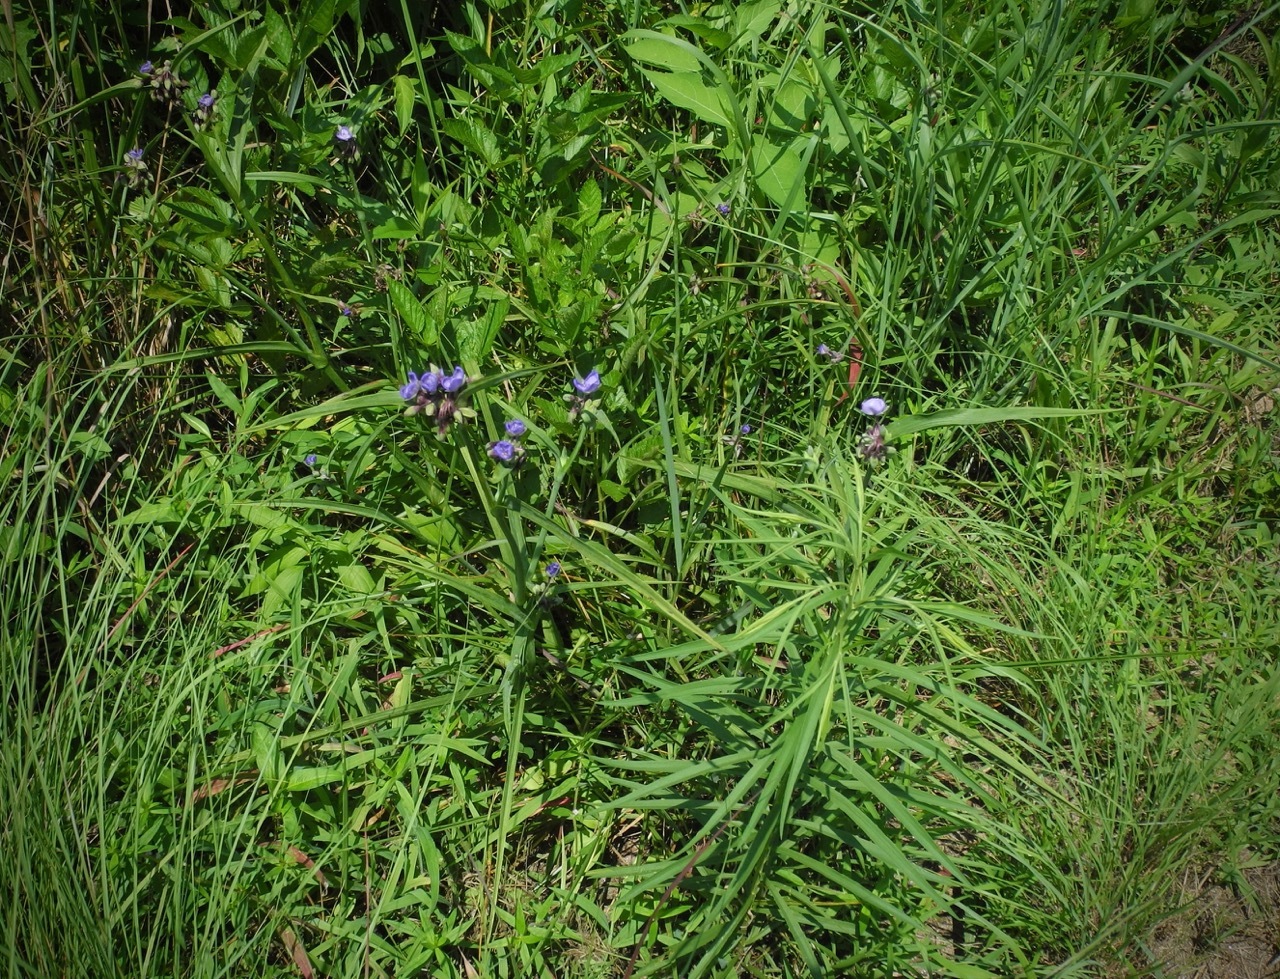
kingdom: Plantae
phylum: Tracheophyta
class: Liliopsida
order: Commelinales
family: Commelinaceae
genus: Tradescantia
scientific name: Tradescantia ohiensis
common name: Ohio spiderwort
